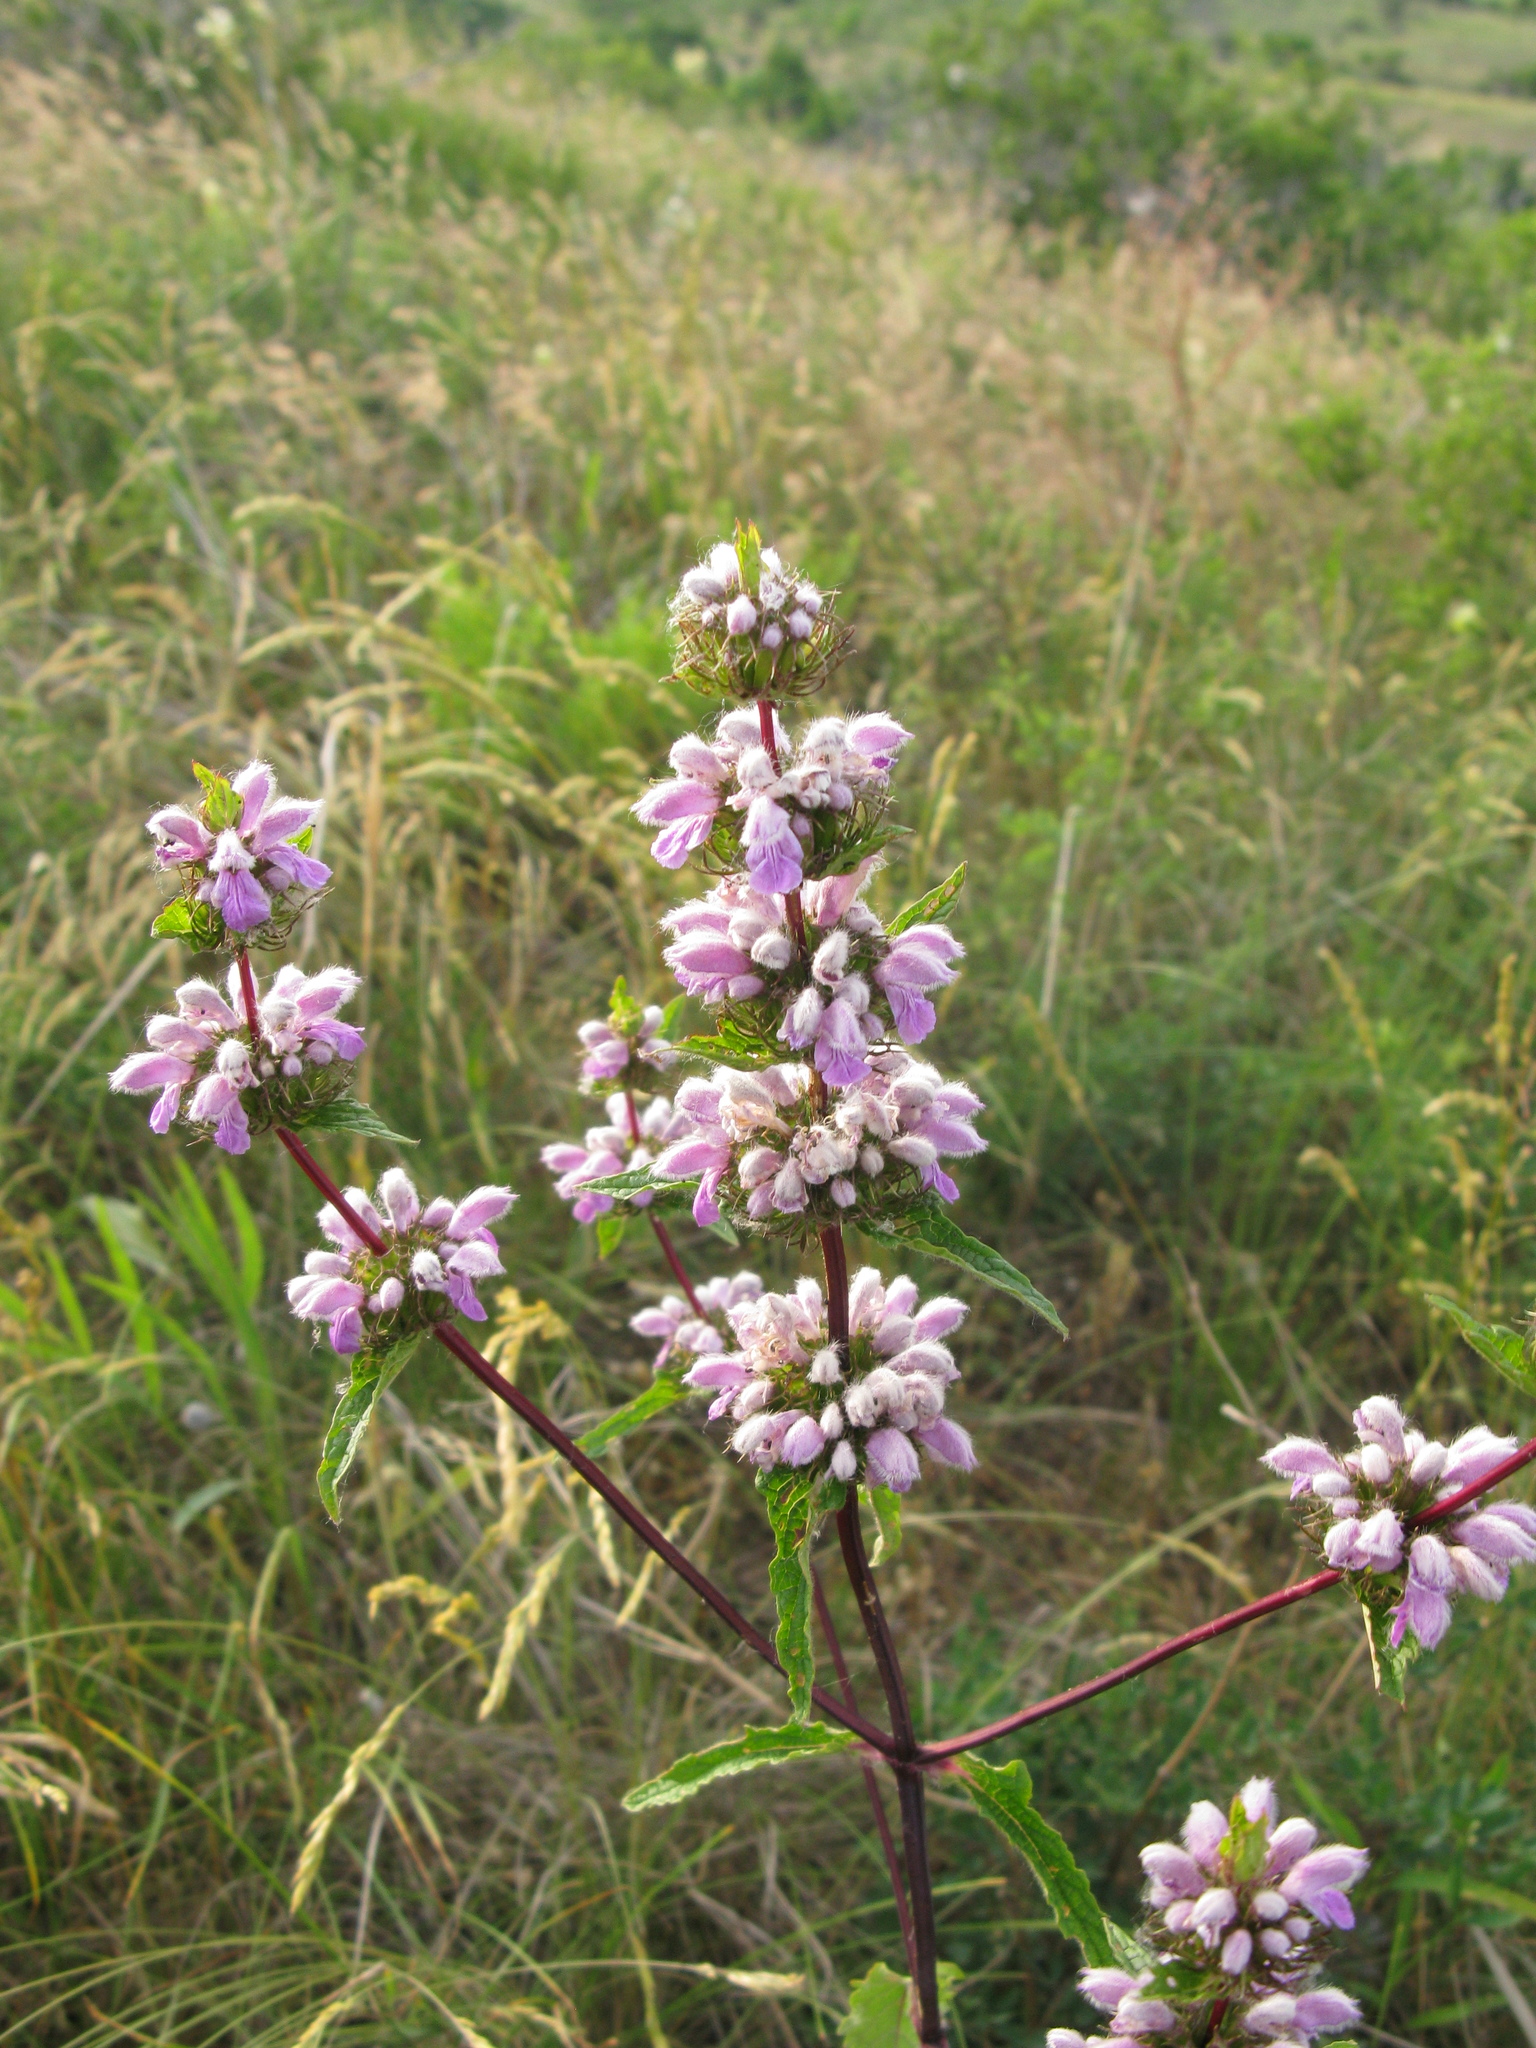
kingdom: Plantae
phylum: Tracheophyta
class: Magnoliopsida
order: Lamiales
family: Lamiaceae
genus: Phlomoides
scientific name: Phlomoides tuberosa
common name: Tuberous jerusalem sage
